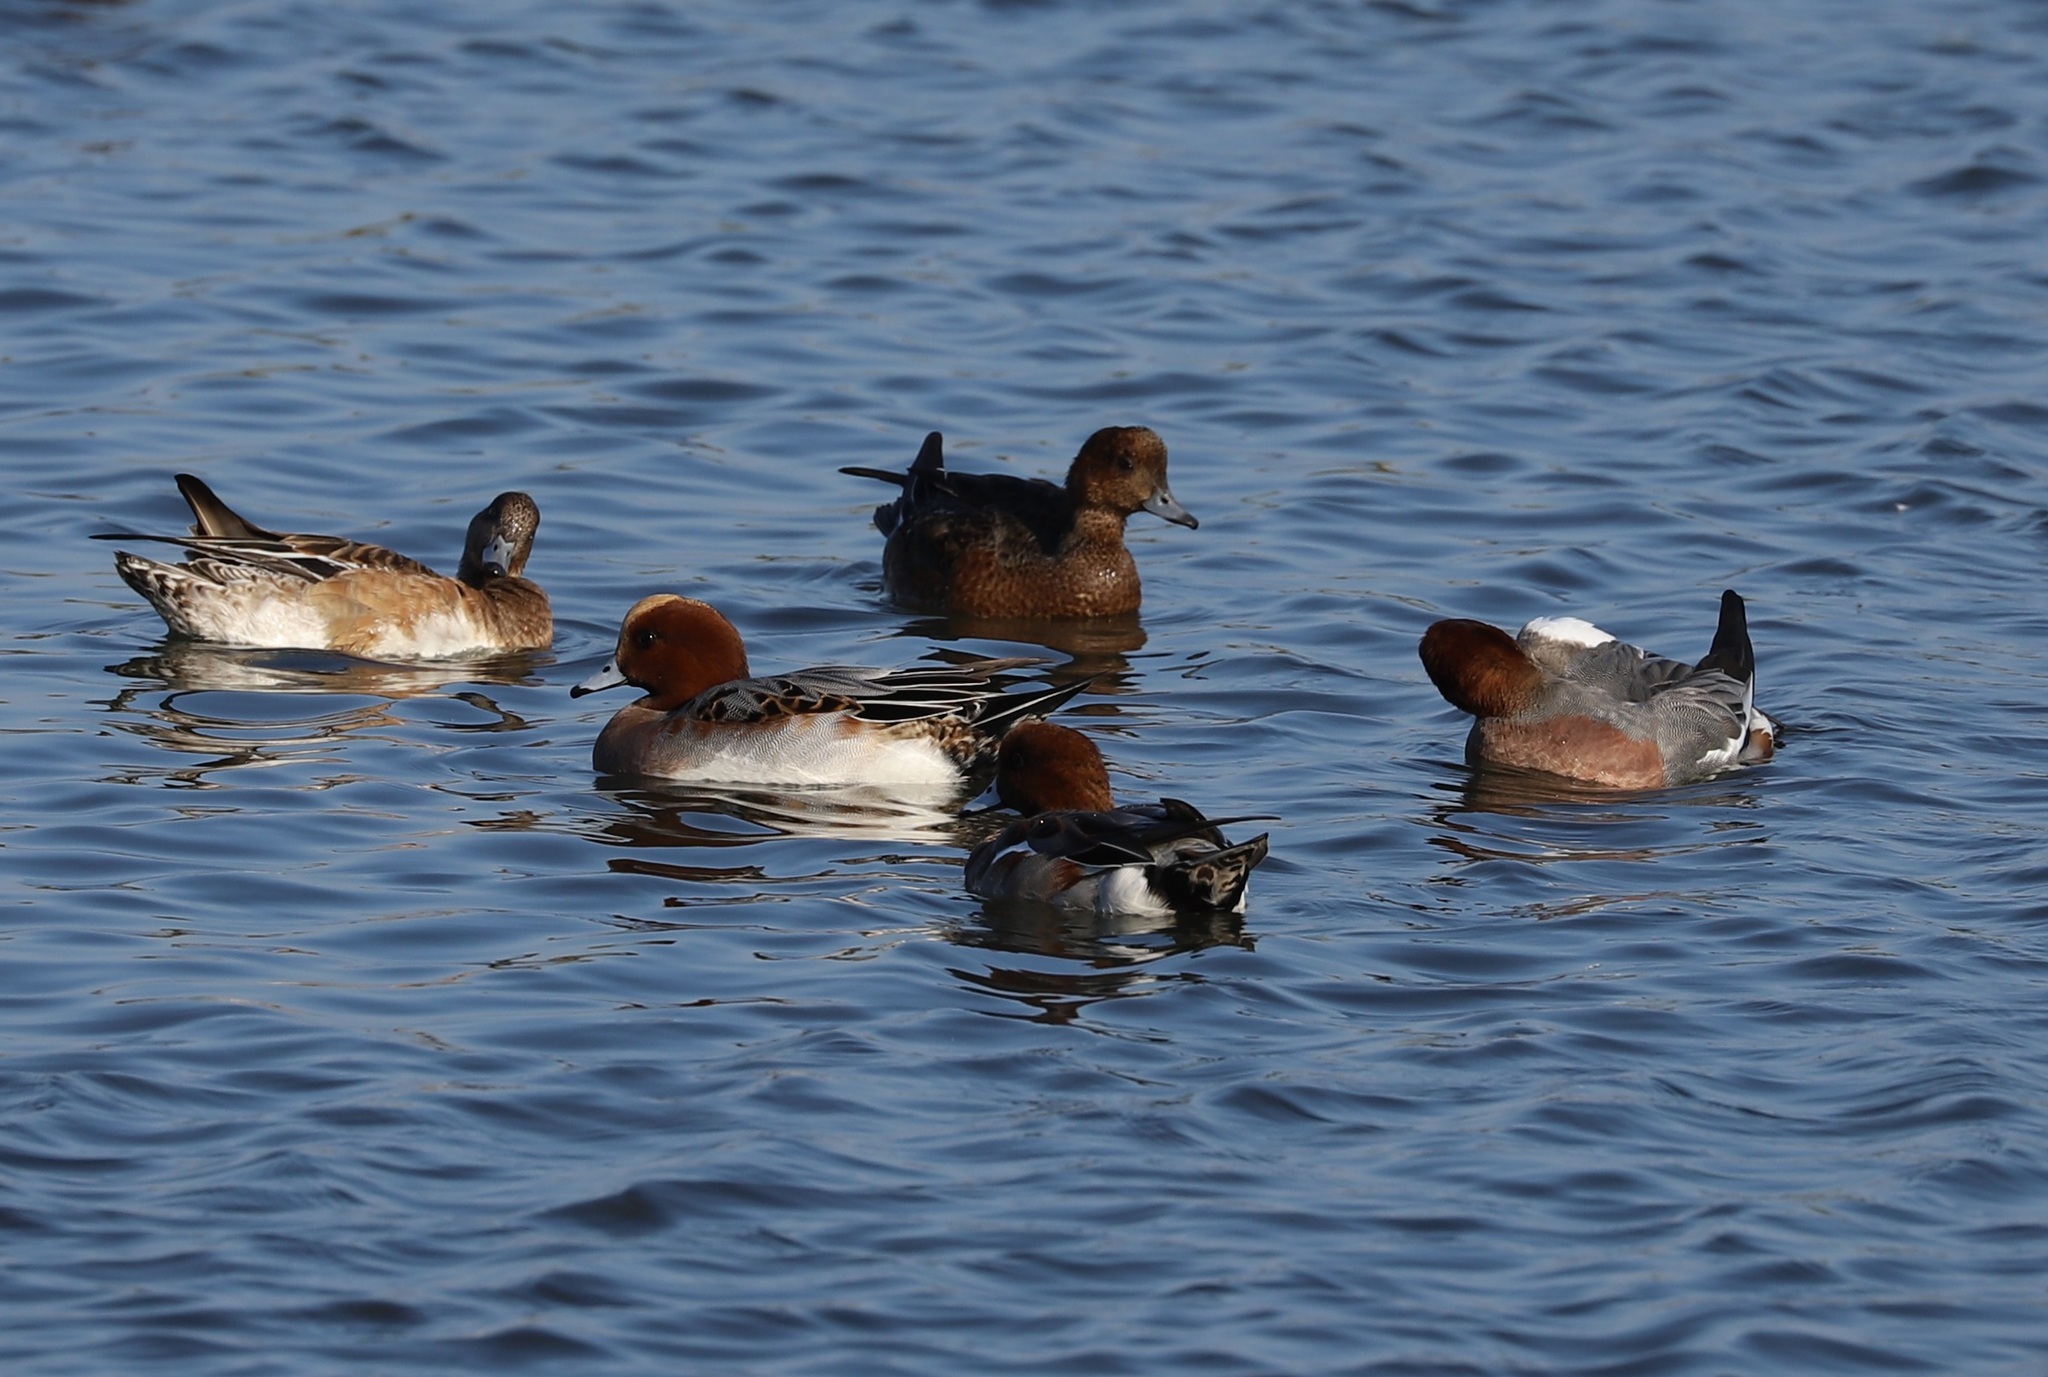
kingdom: Animalia
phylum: Chordata
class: Aves
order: Anseriformes
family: Anatidae
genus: Mareca
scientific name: Mareca penelope
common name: Eurasian wigeon
